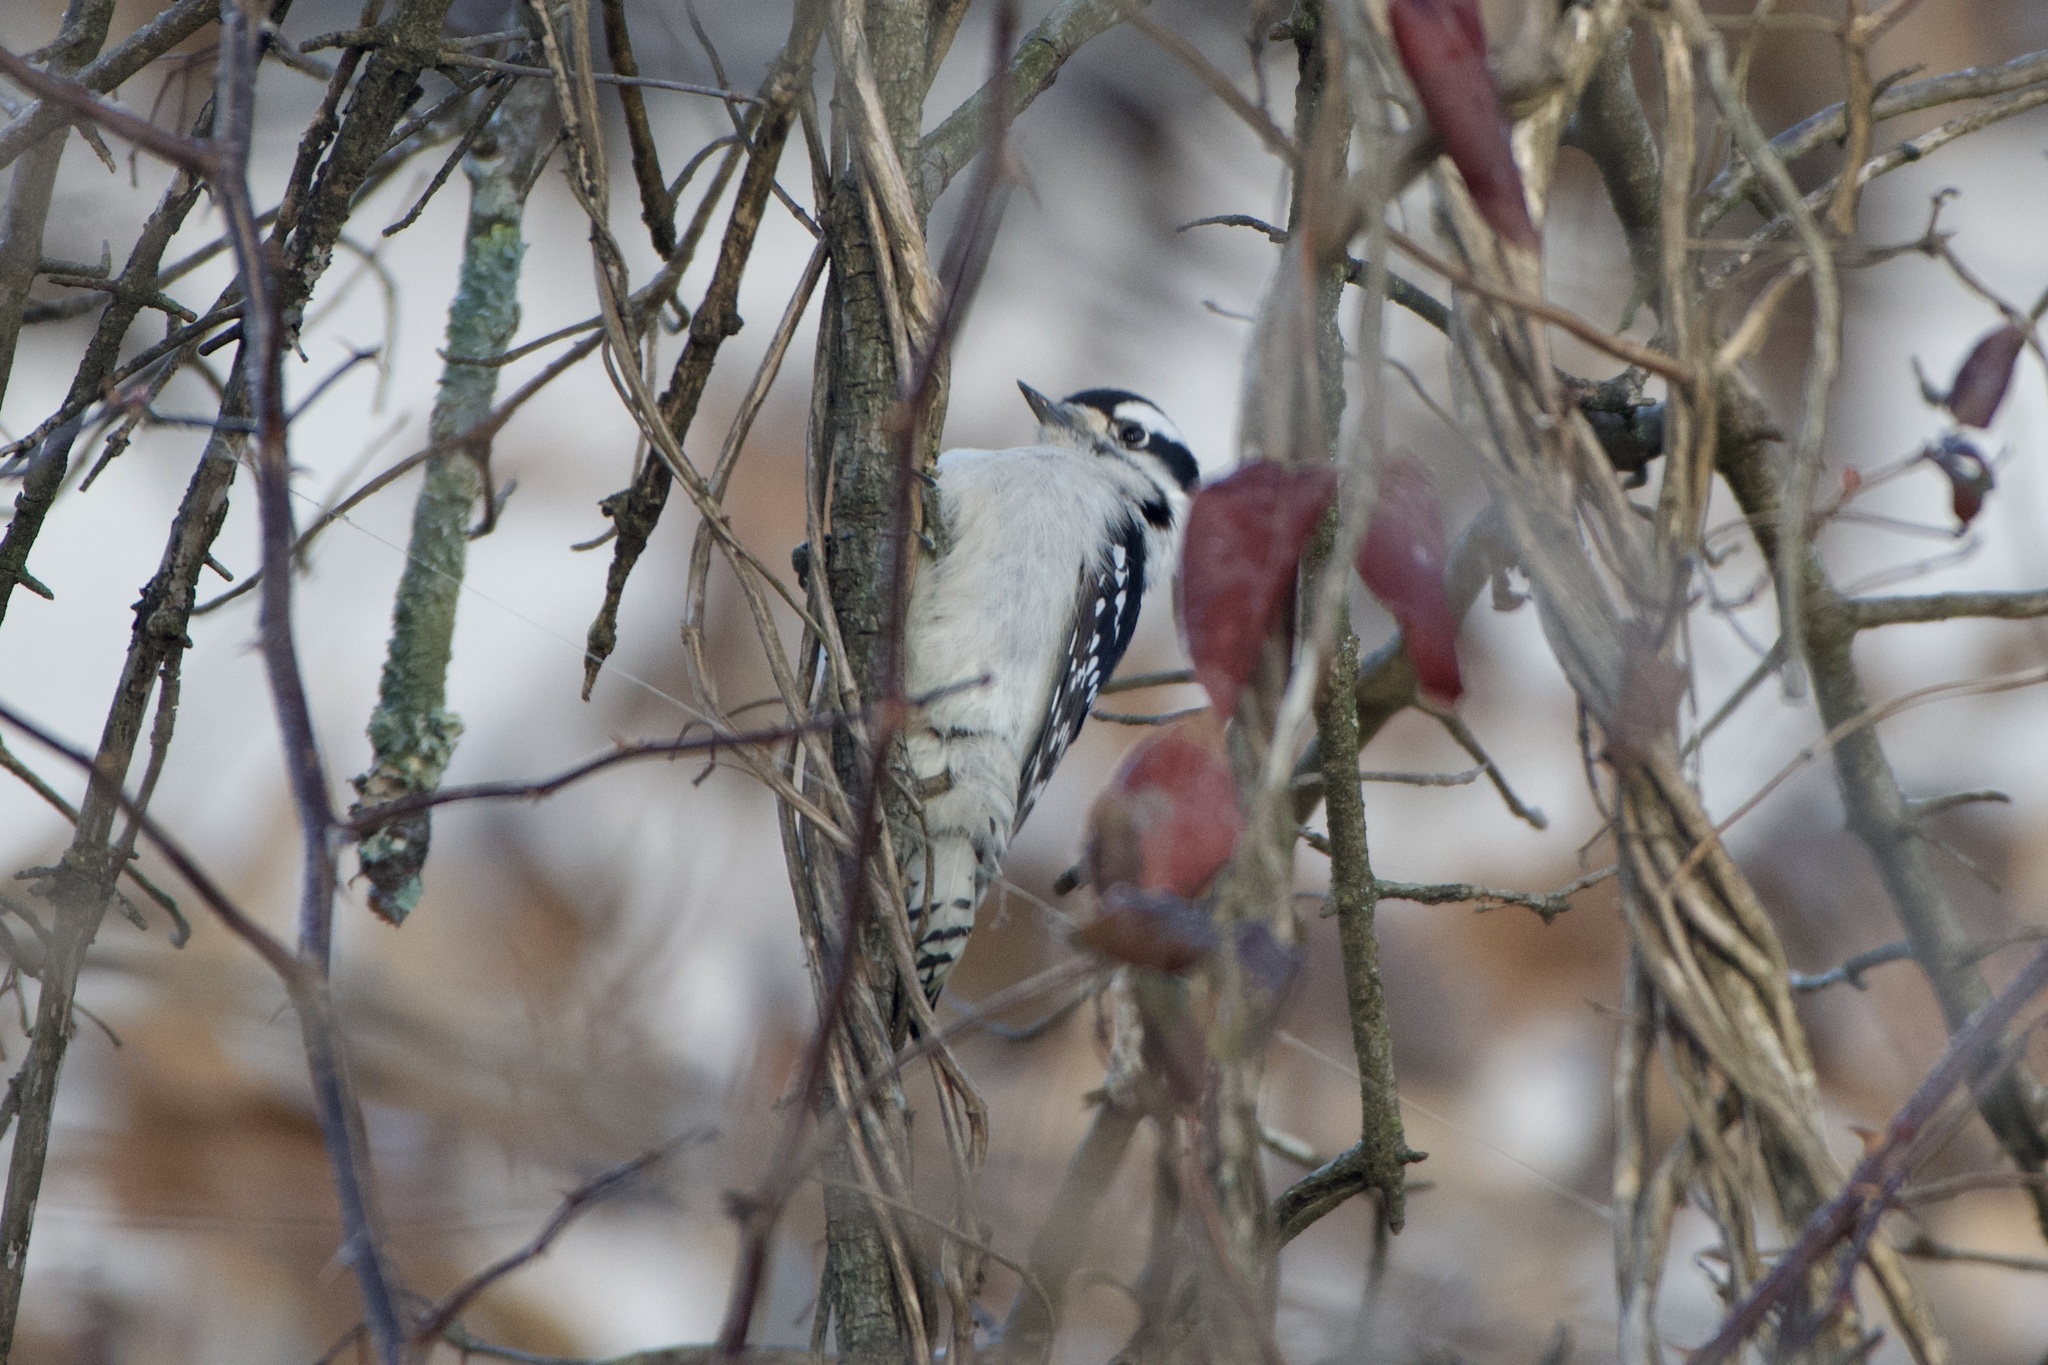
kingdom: Animalia
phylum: Chordata
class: Aves
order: Piciformes
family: Picidae
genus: Dryobates
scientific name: Dryobates pubescens
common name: Downy woodpecker
